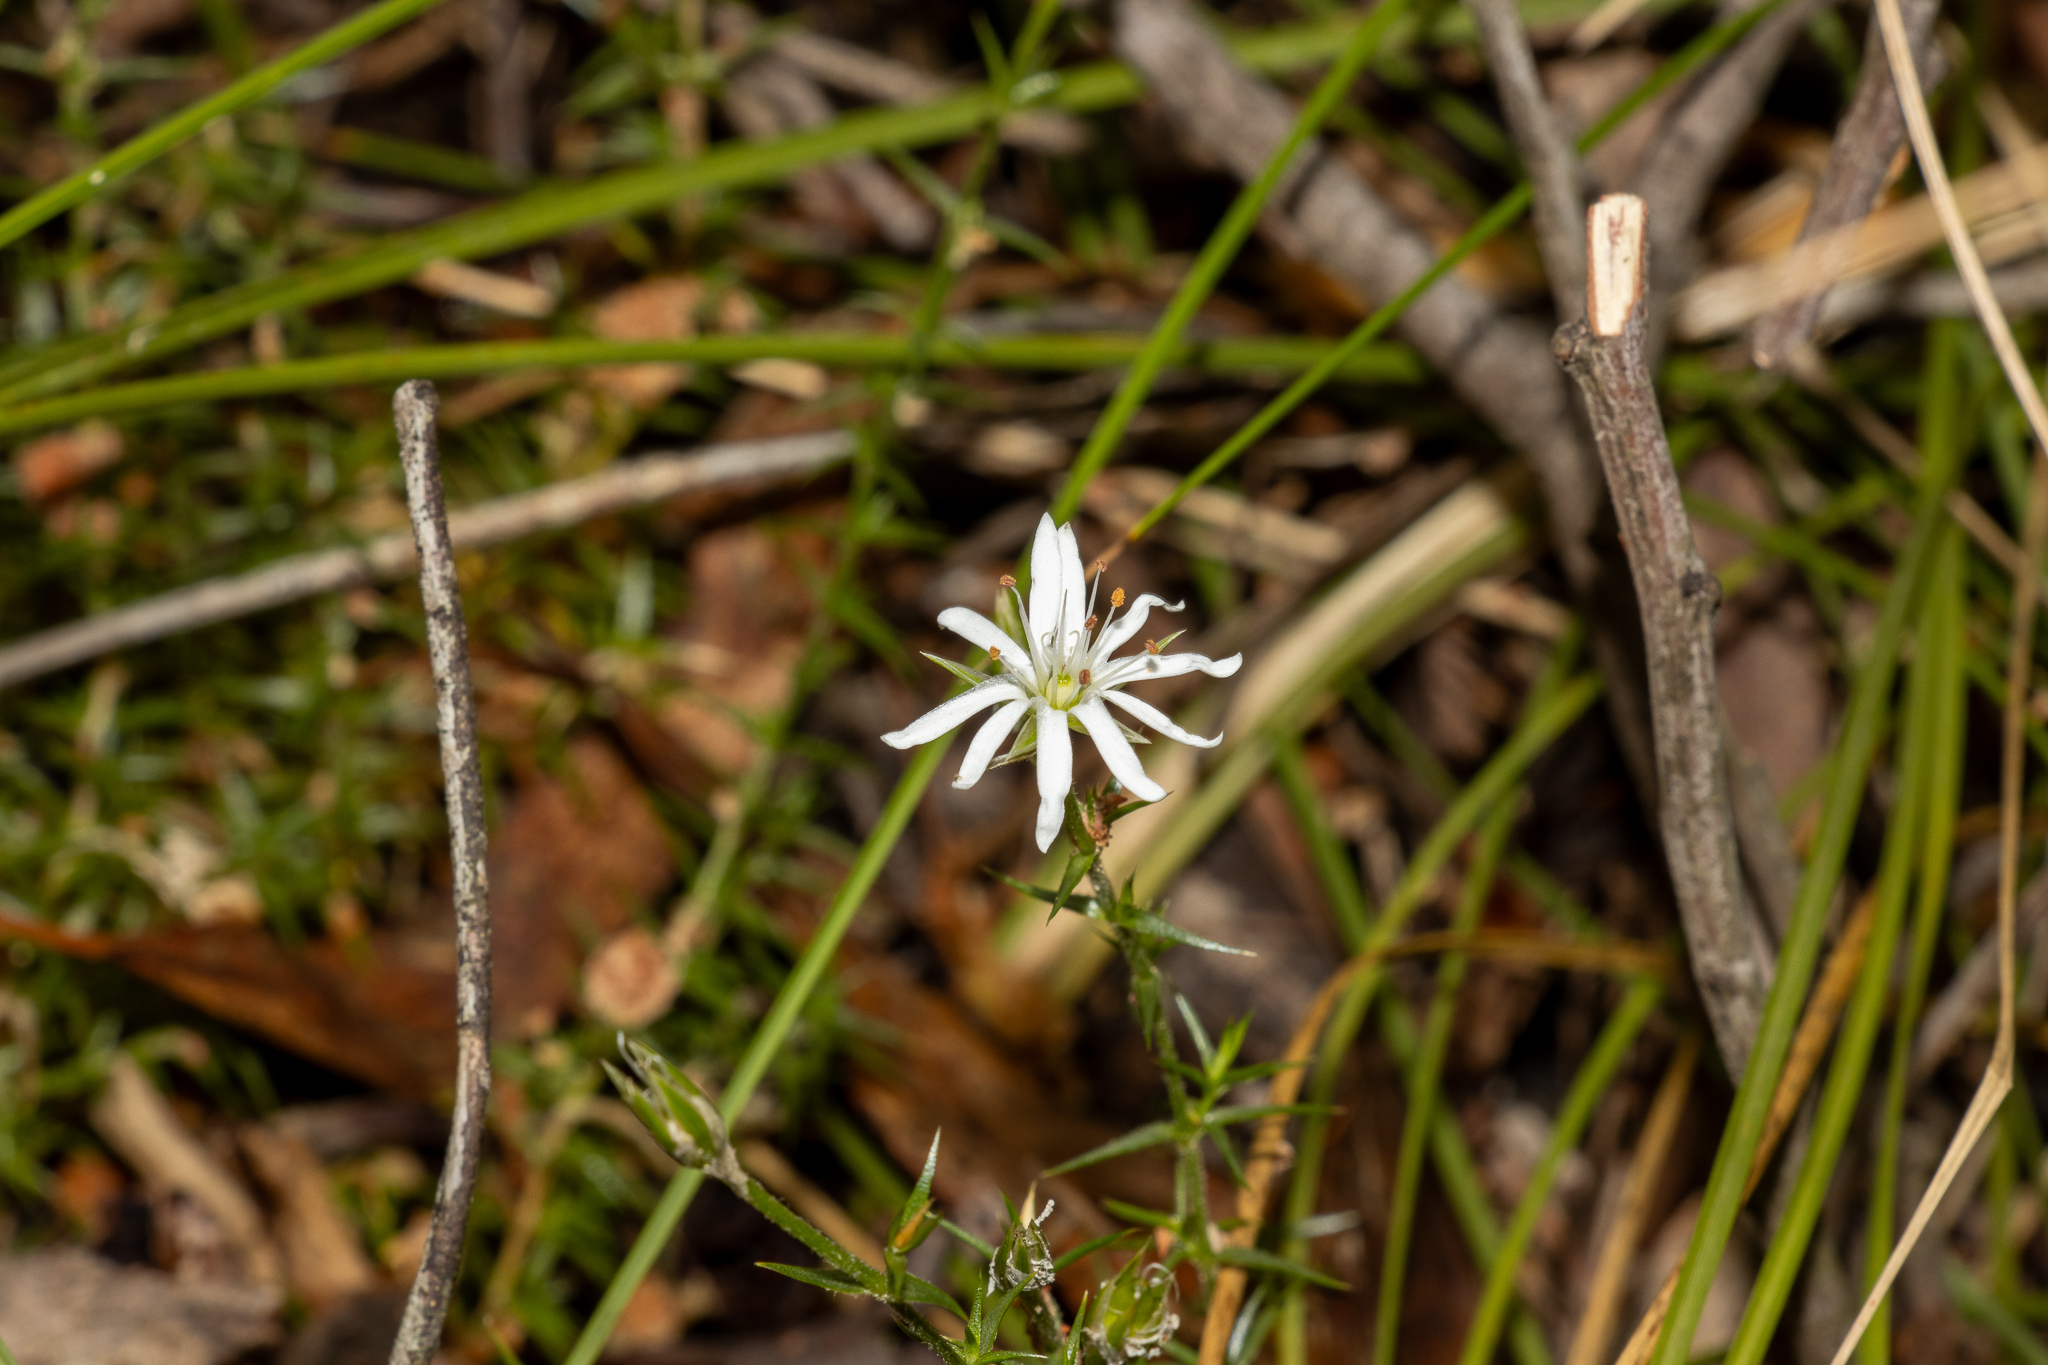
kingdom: Plantae
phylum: Tracheophyta
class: Magnoliopsida
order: Caryophyllales
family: Caryophyllaceae
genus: Stellaria
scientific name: Stellaria pungens
